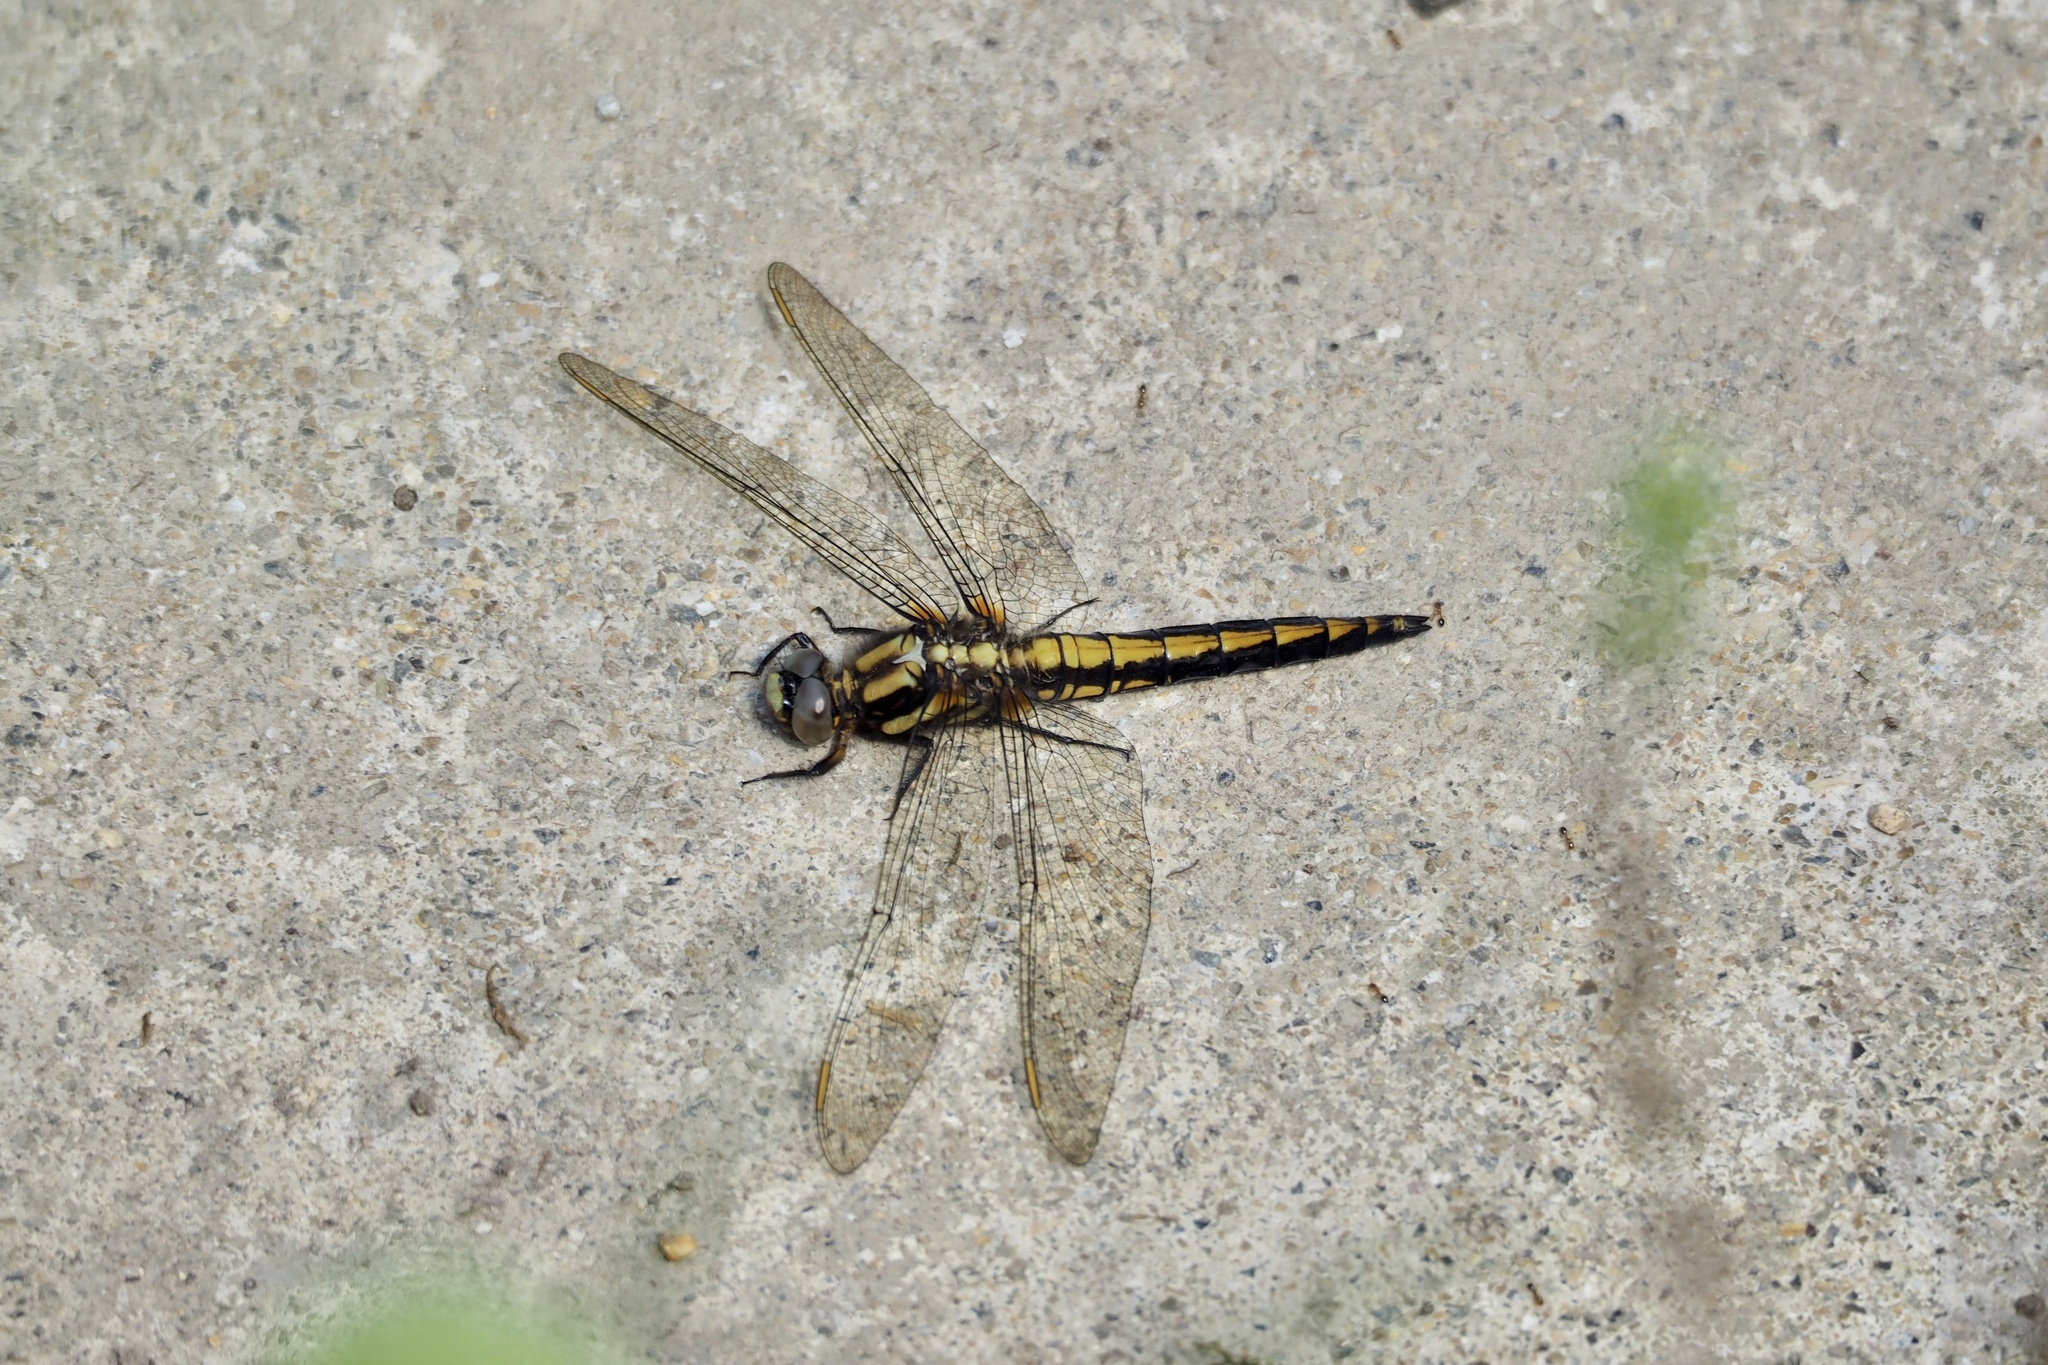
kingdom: Animalia
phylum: Arthropoda
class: Insecta
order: Odonata
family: Libellulidae
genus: Orthetrum
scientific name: Orthetrum japonicum
